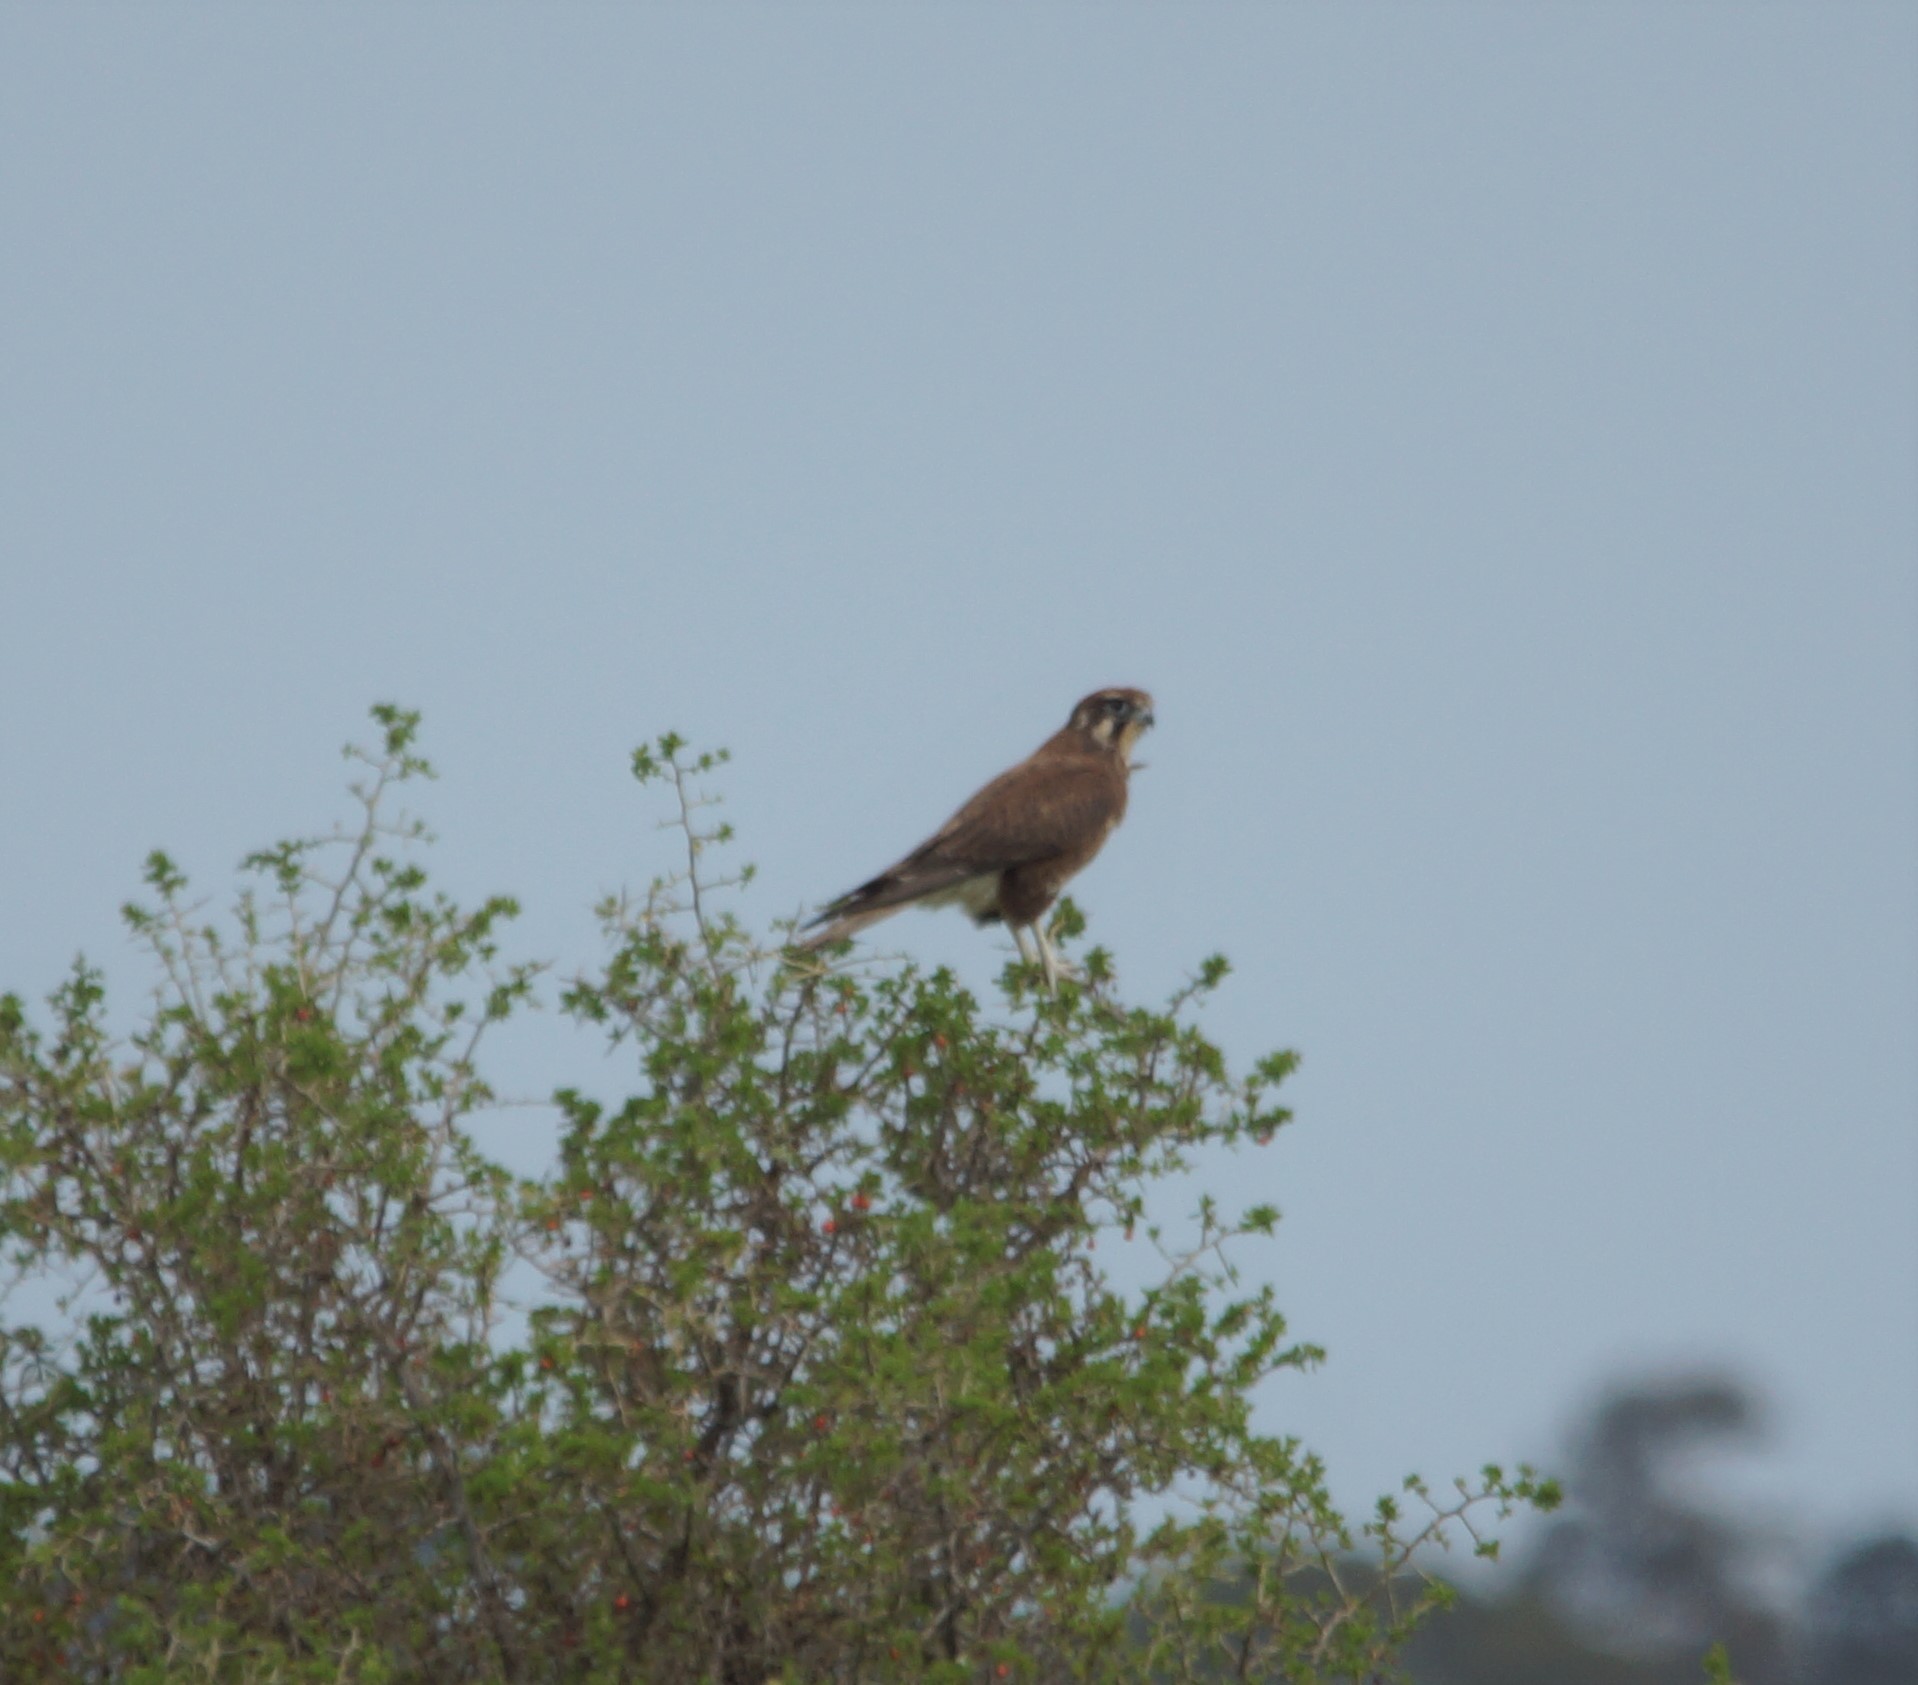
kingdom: Animalia
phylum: Chordata
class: Aves
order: Falconiformes
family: Falconidae
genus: Falco
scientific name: Falco berigora
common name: Brown falcon
